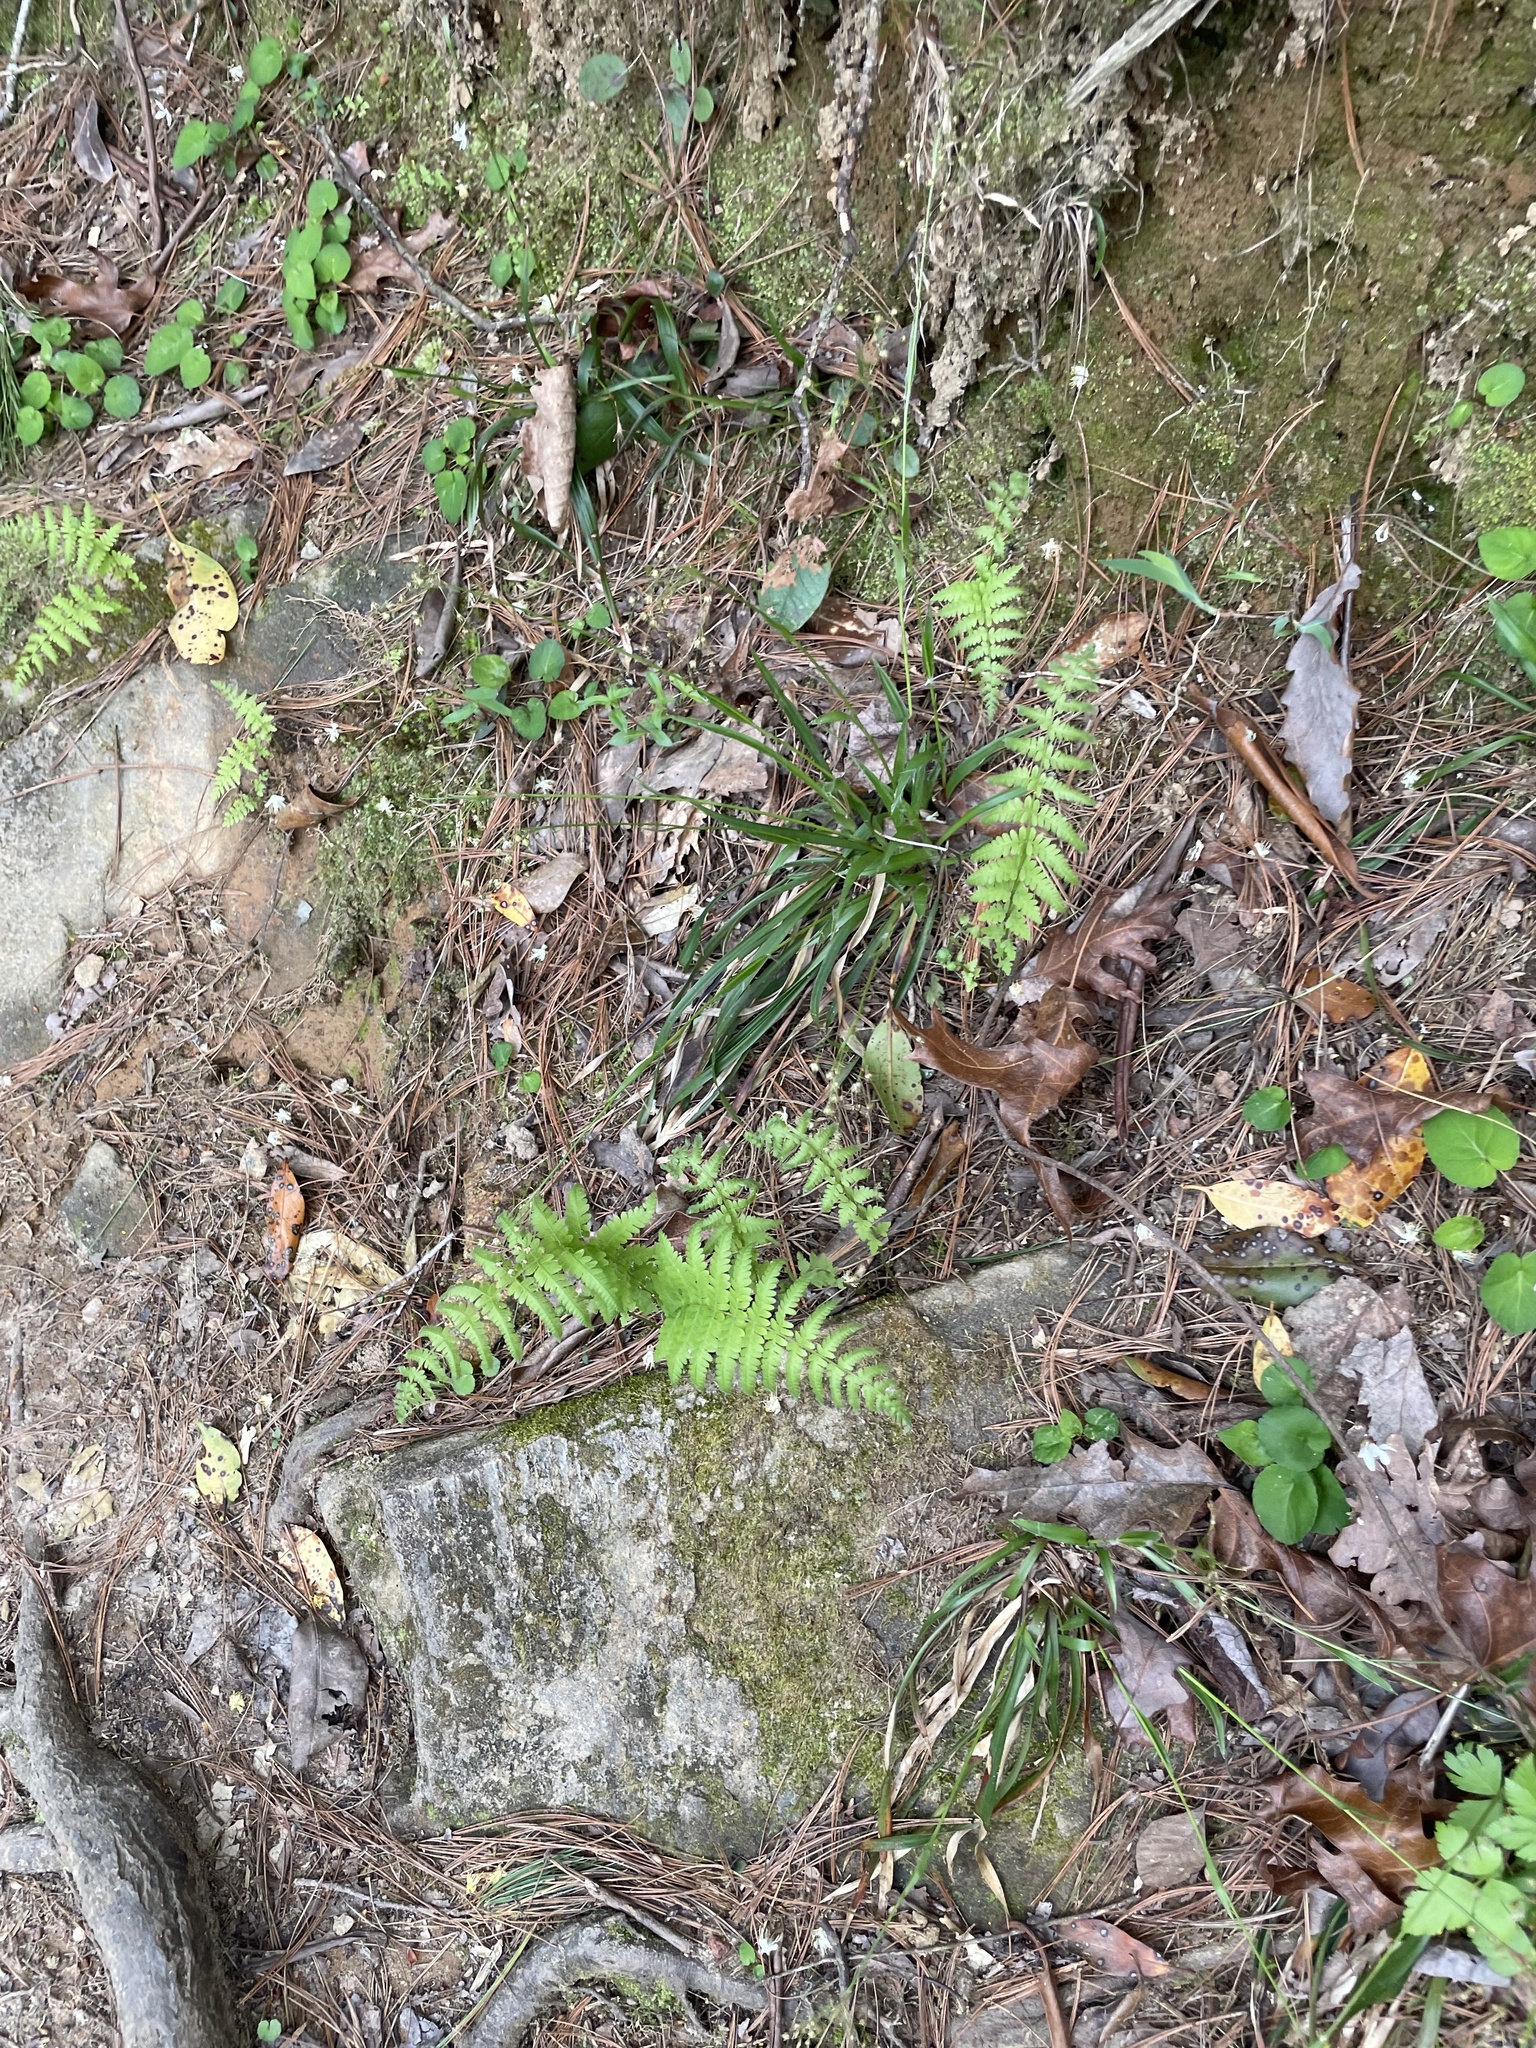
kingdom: Plantae
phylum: Tracheophyta
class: Polypodiopsida
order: Polypodiales
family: Thelypteridaceae
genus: Amauropelta
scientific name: Amauropelta noveboracensis
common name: New york fern
